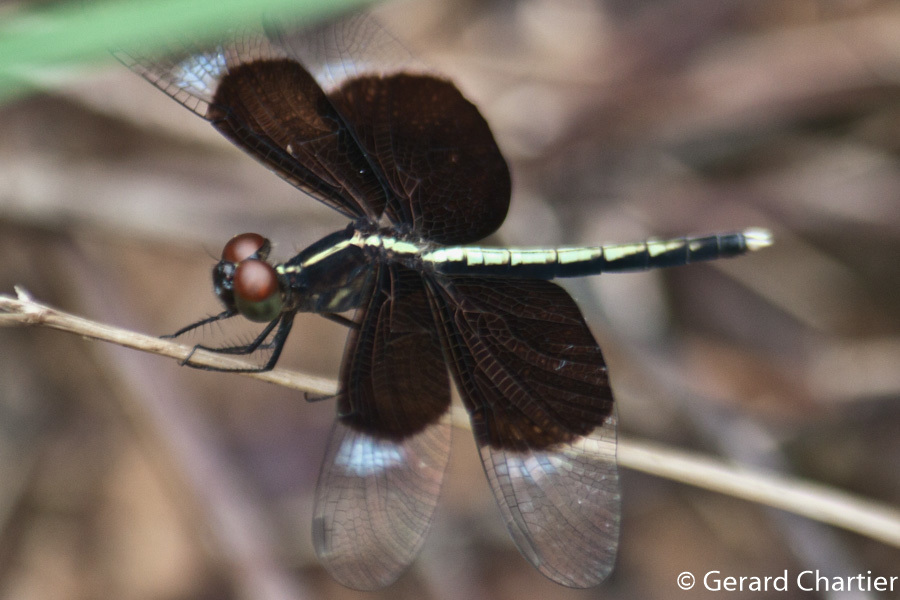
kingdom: Animalia
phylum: Arthropoda
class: Insecta
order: Odonata
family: Libellulidae
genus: Neurothemis
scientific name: Neurothemis tullia
